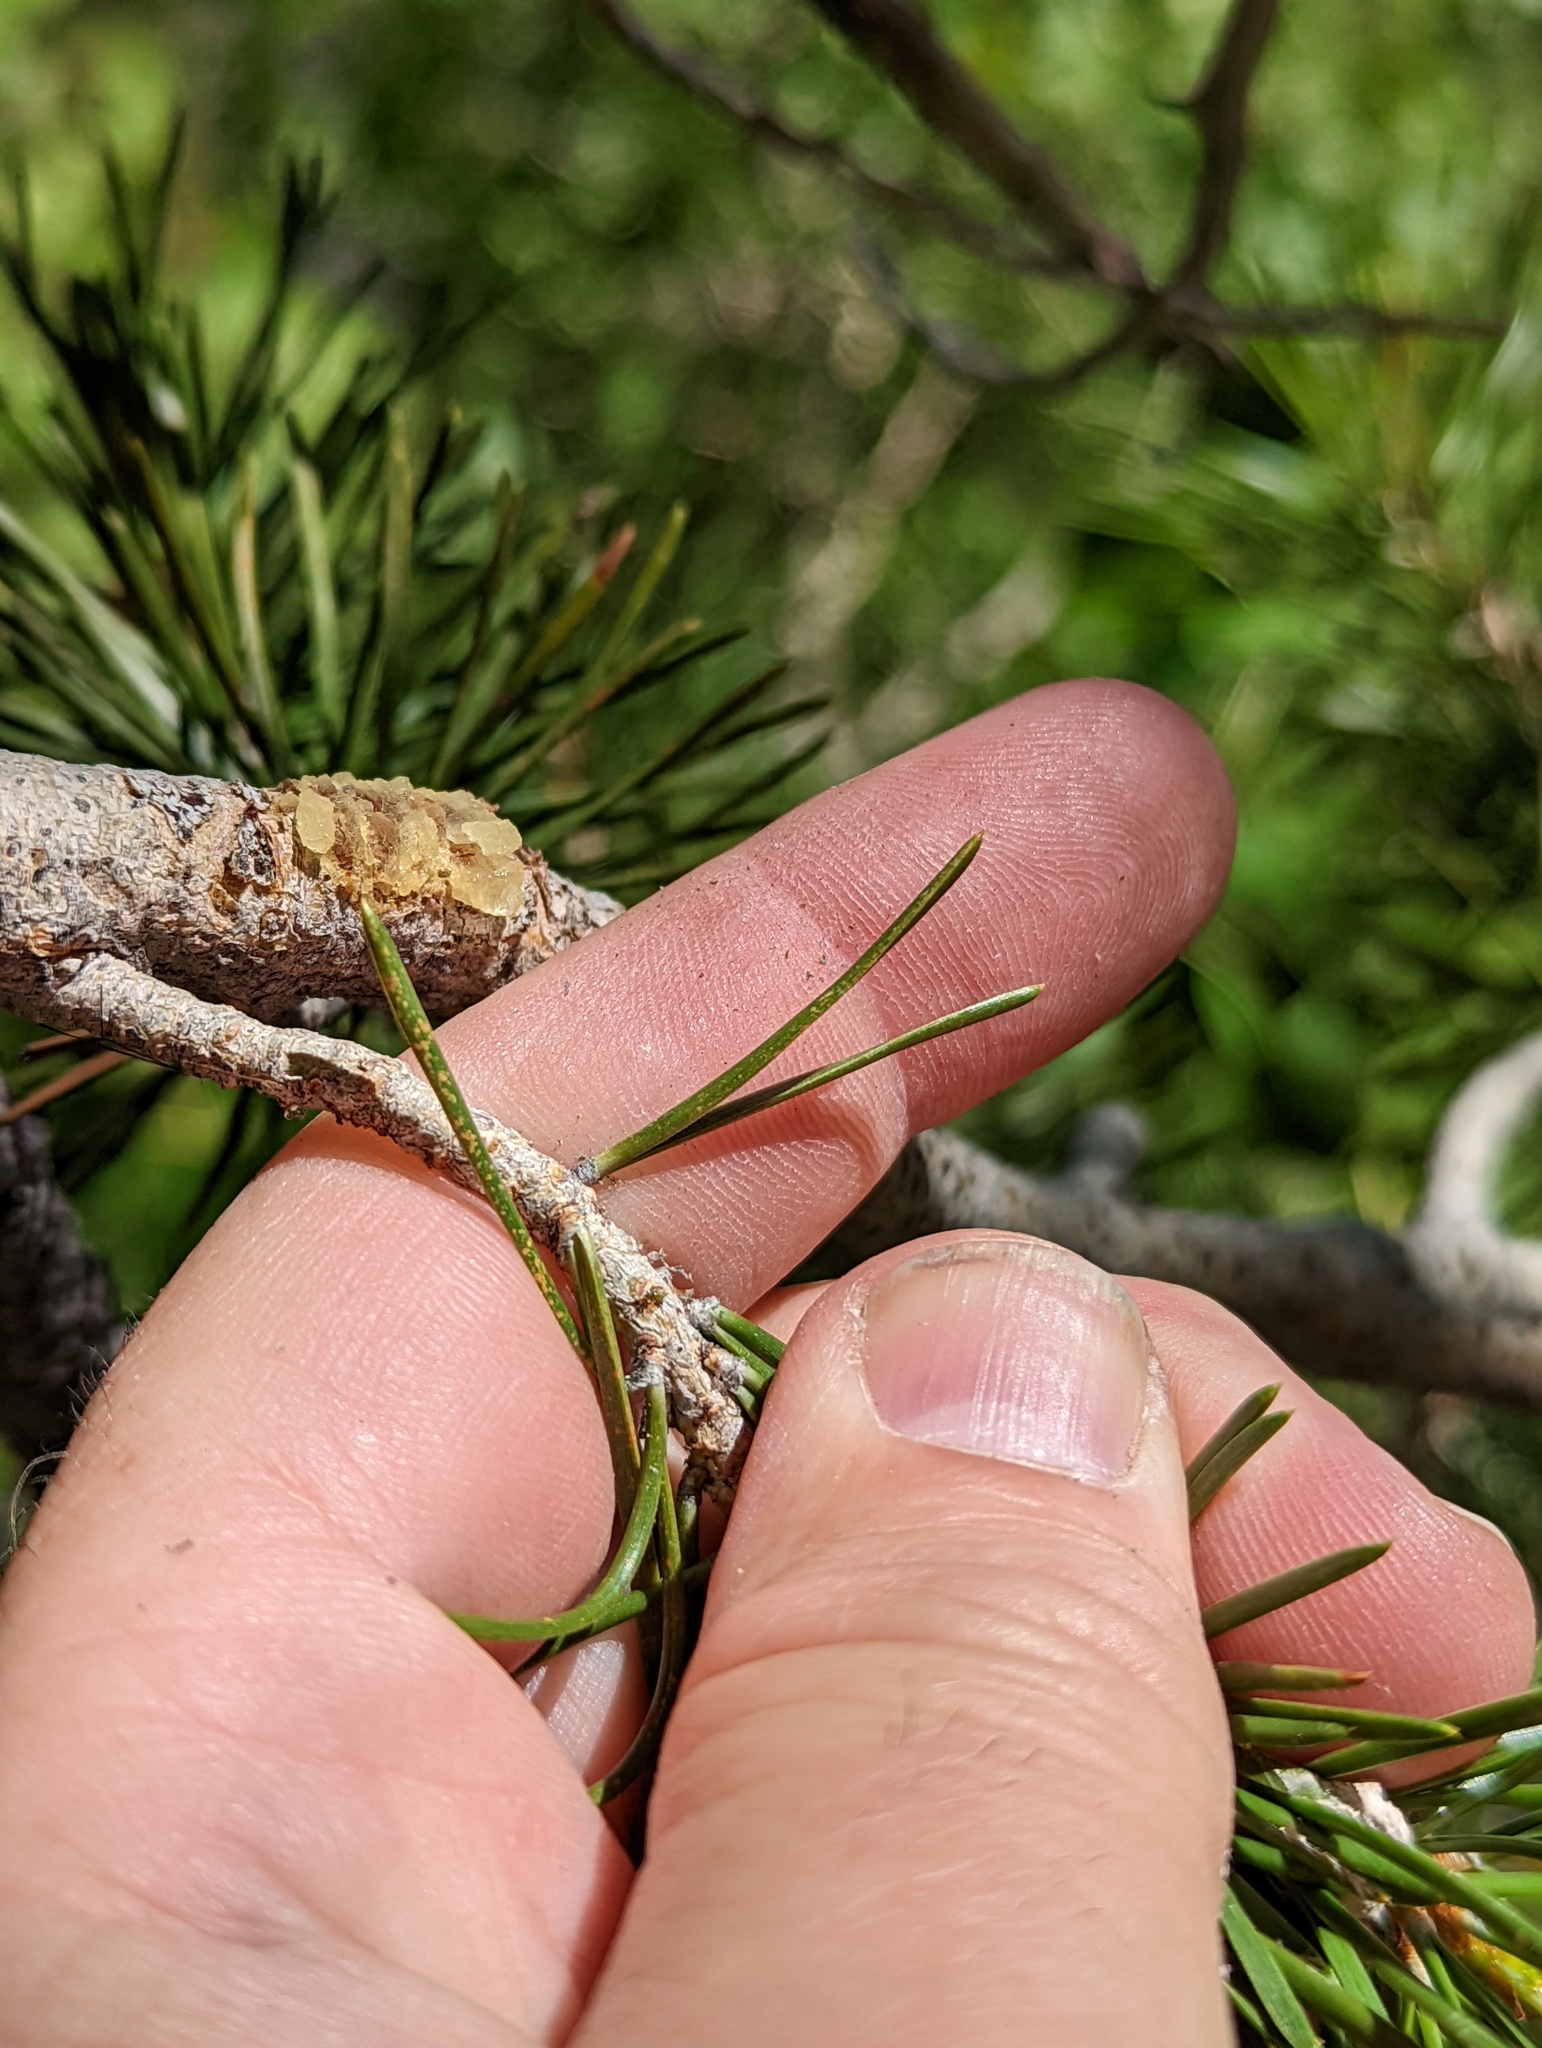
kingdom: Plantae
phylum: Tracheophyta
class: Pinopsida
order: Pinales
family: Pinaceae
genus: Pinus
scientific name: Pinus contorta
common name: Lodgepole pine
